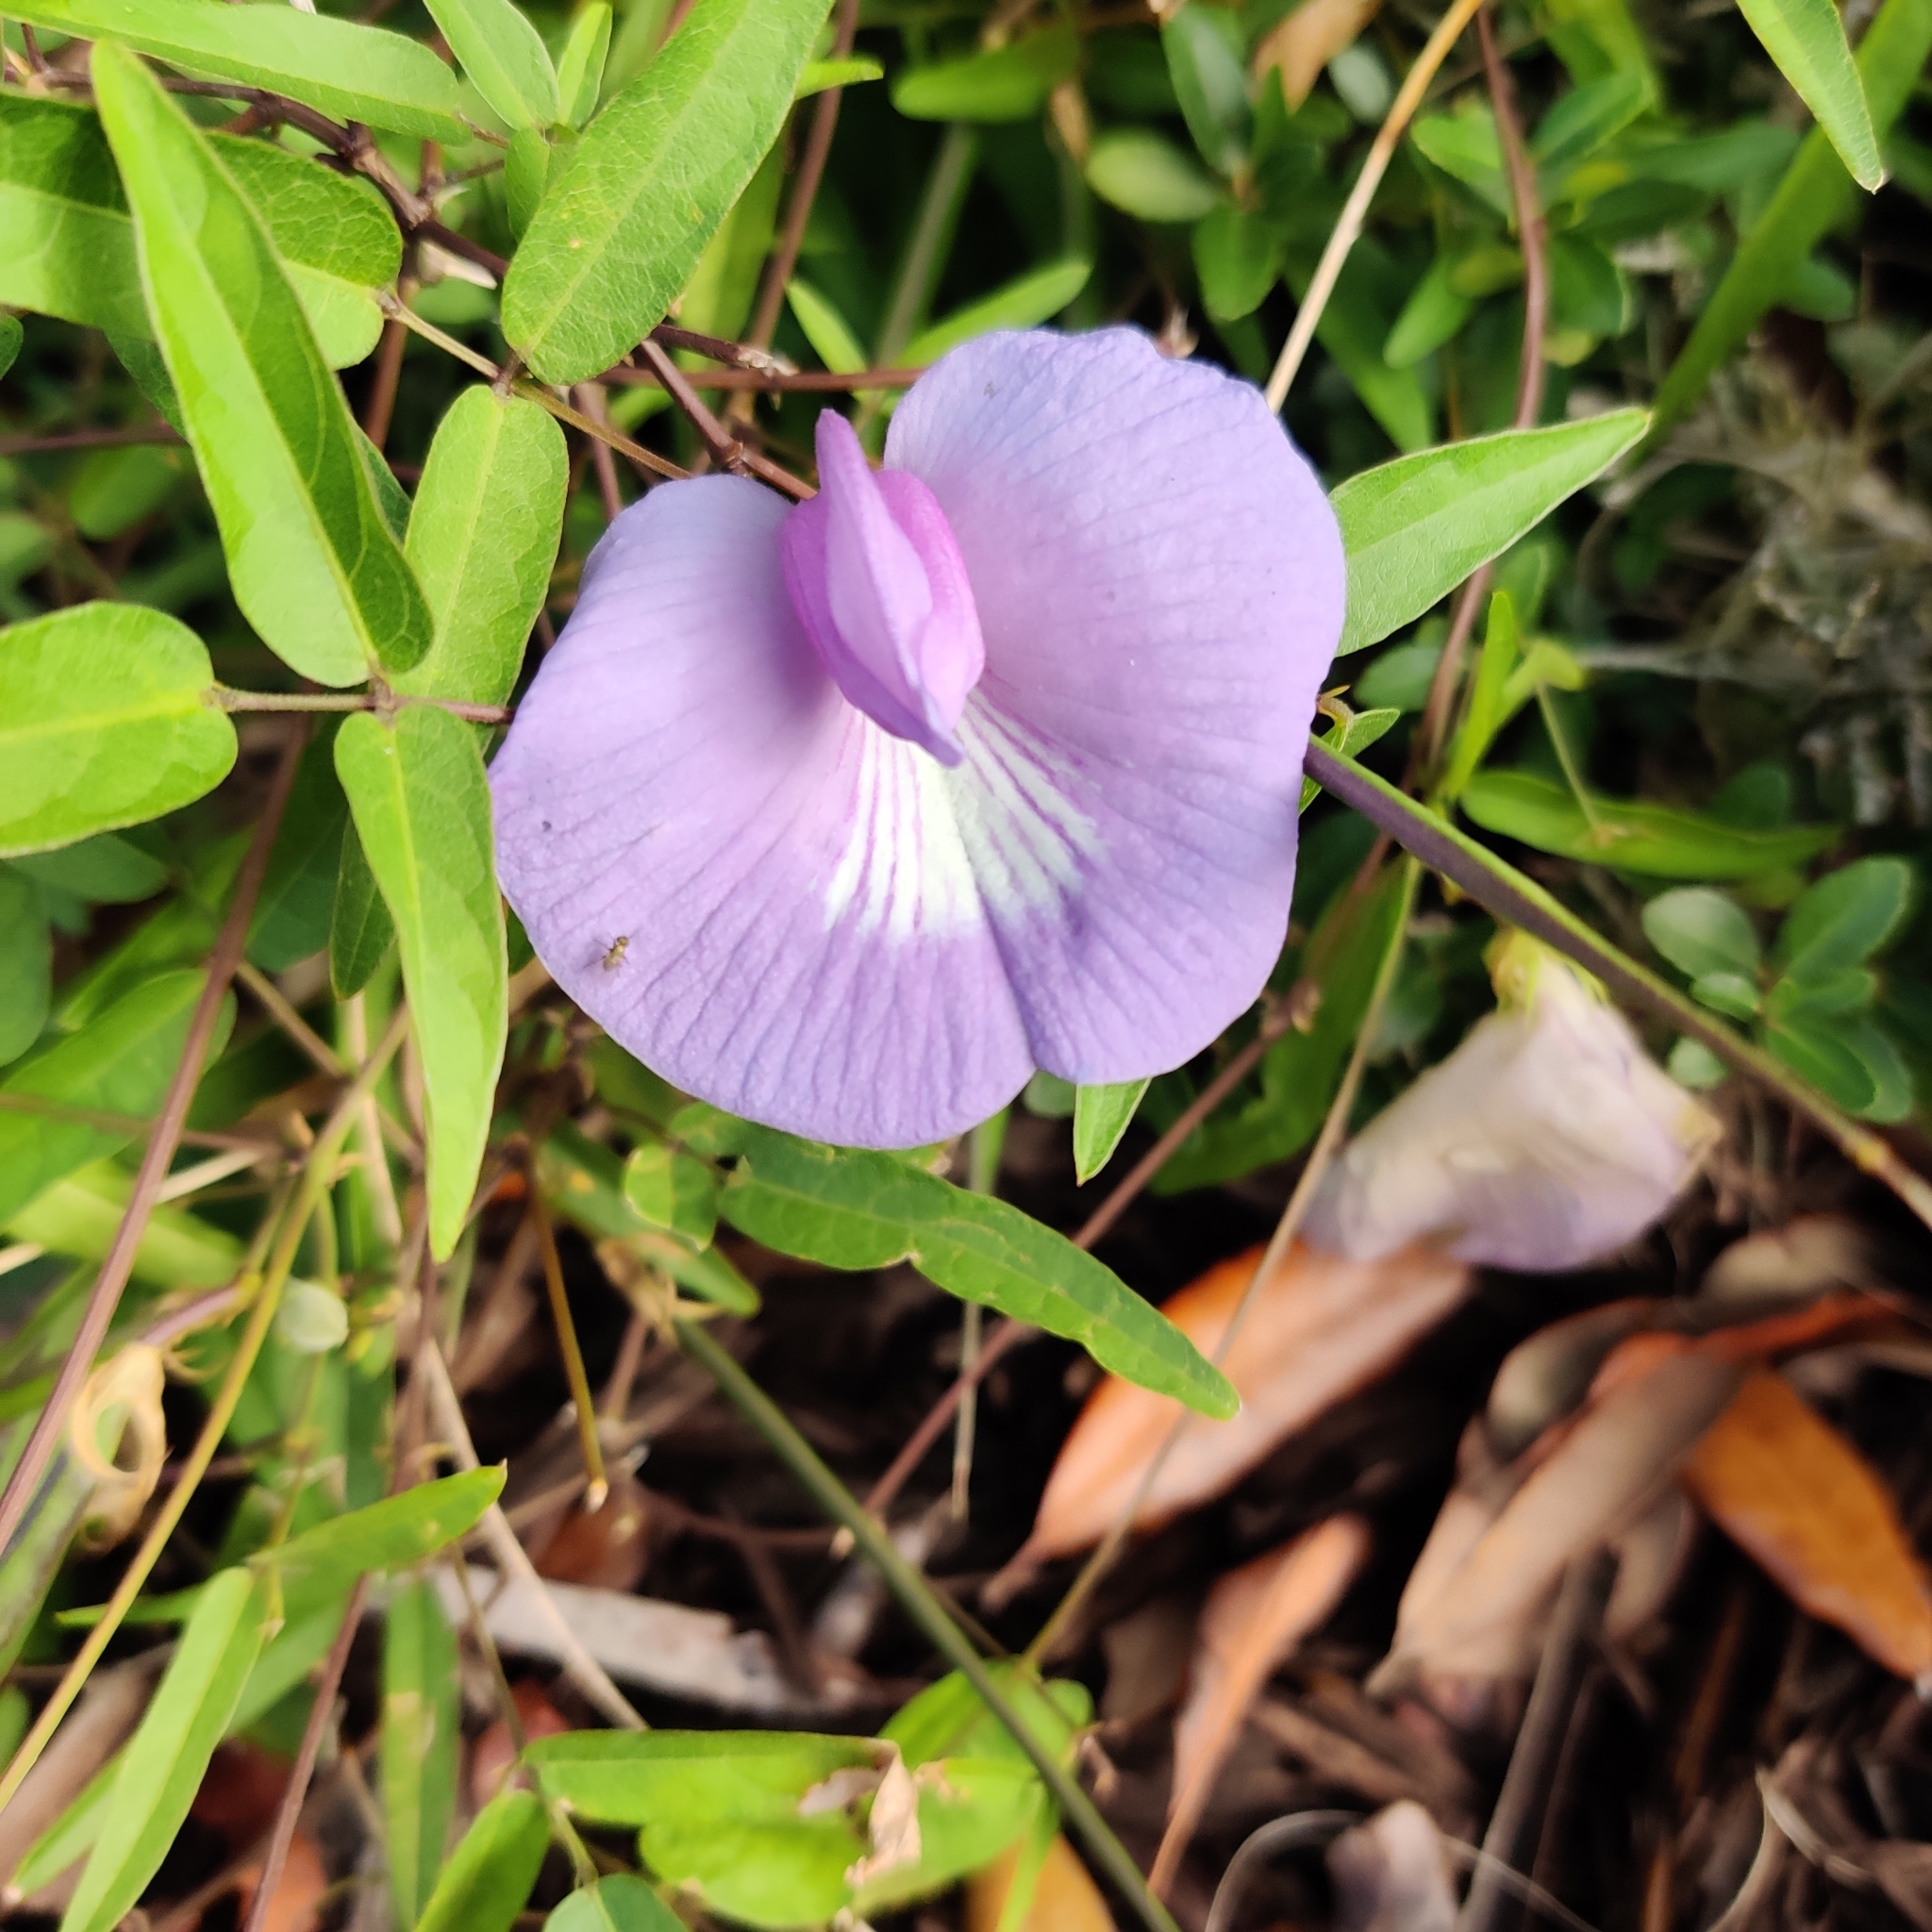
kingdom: Plantae
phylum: Tracheophyta
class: Magnoliopsida
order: Fabales
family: Fabaceae
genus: Centrosema
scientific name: Centrosema virginianum
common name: Butterfly-pea
